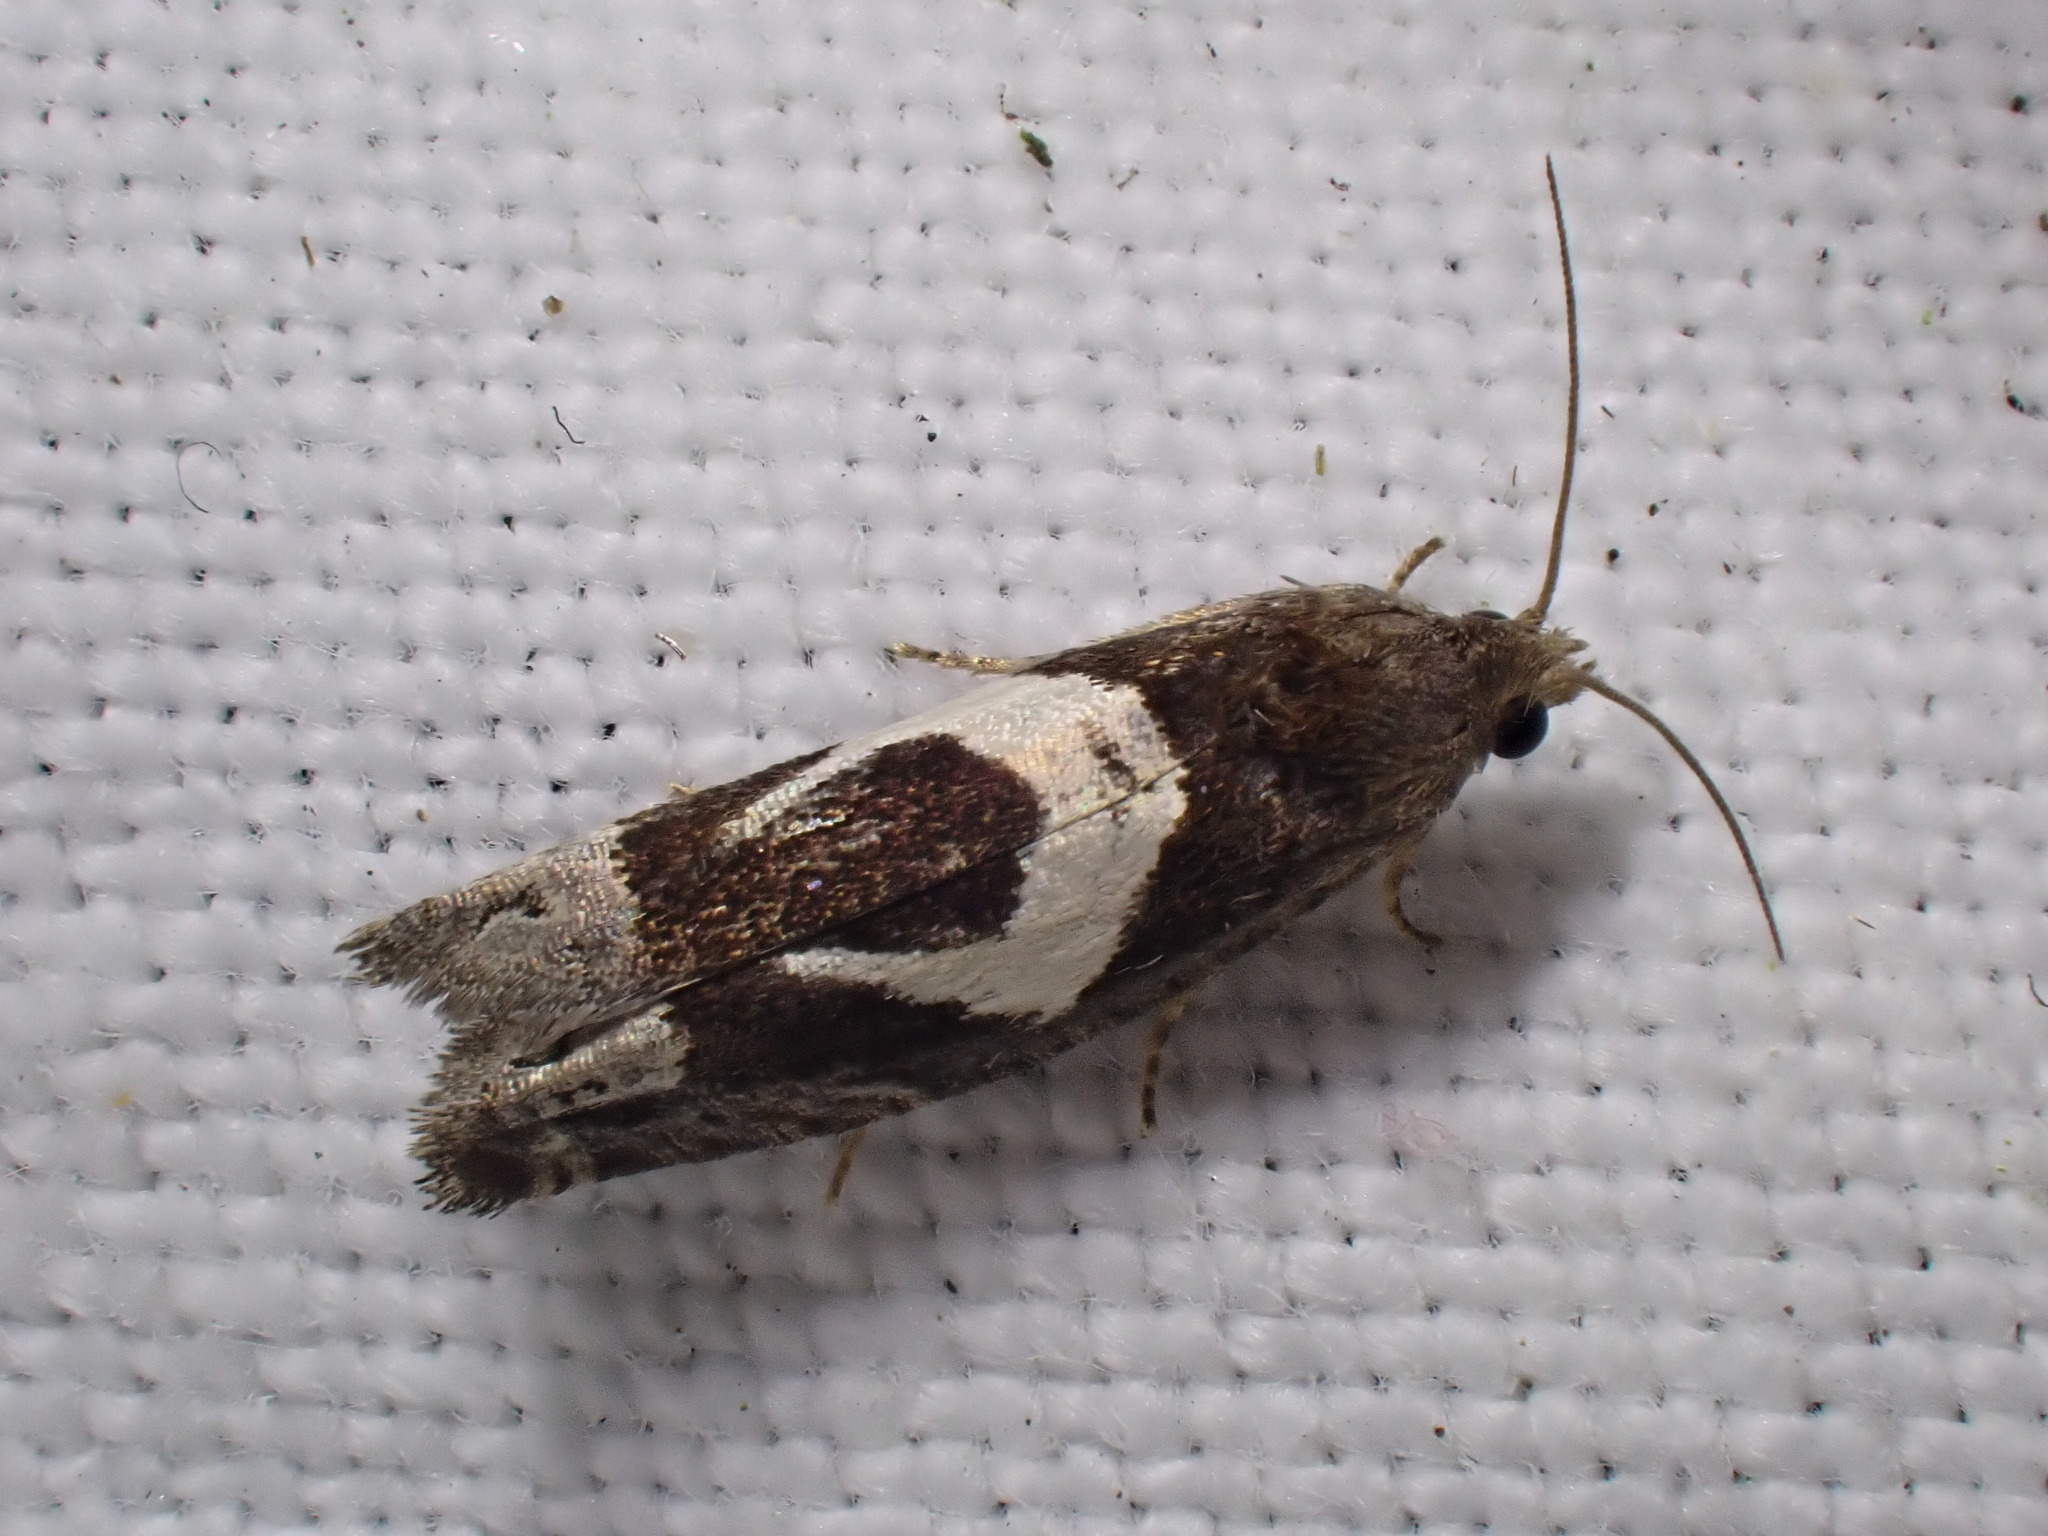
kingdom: Animalia
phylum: Arthropoda
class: Insecta
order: Lepidoptera
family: Tortricidae
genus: Epiblema
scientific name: Epiblema foenella
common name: White-foot bell
